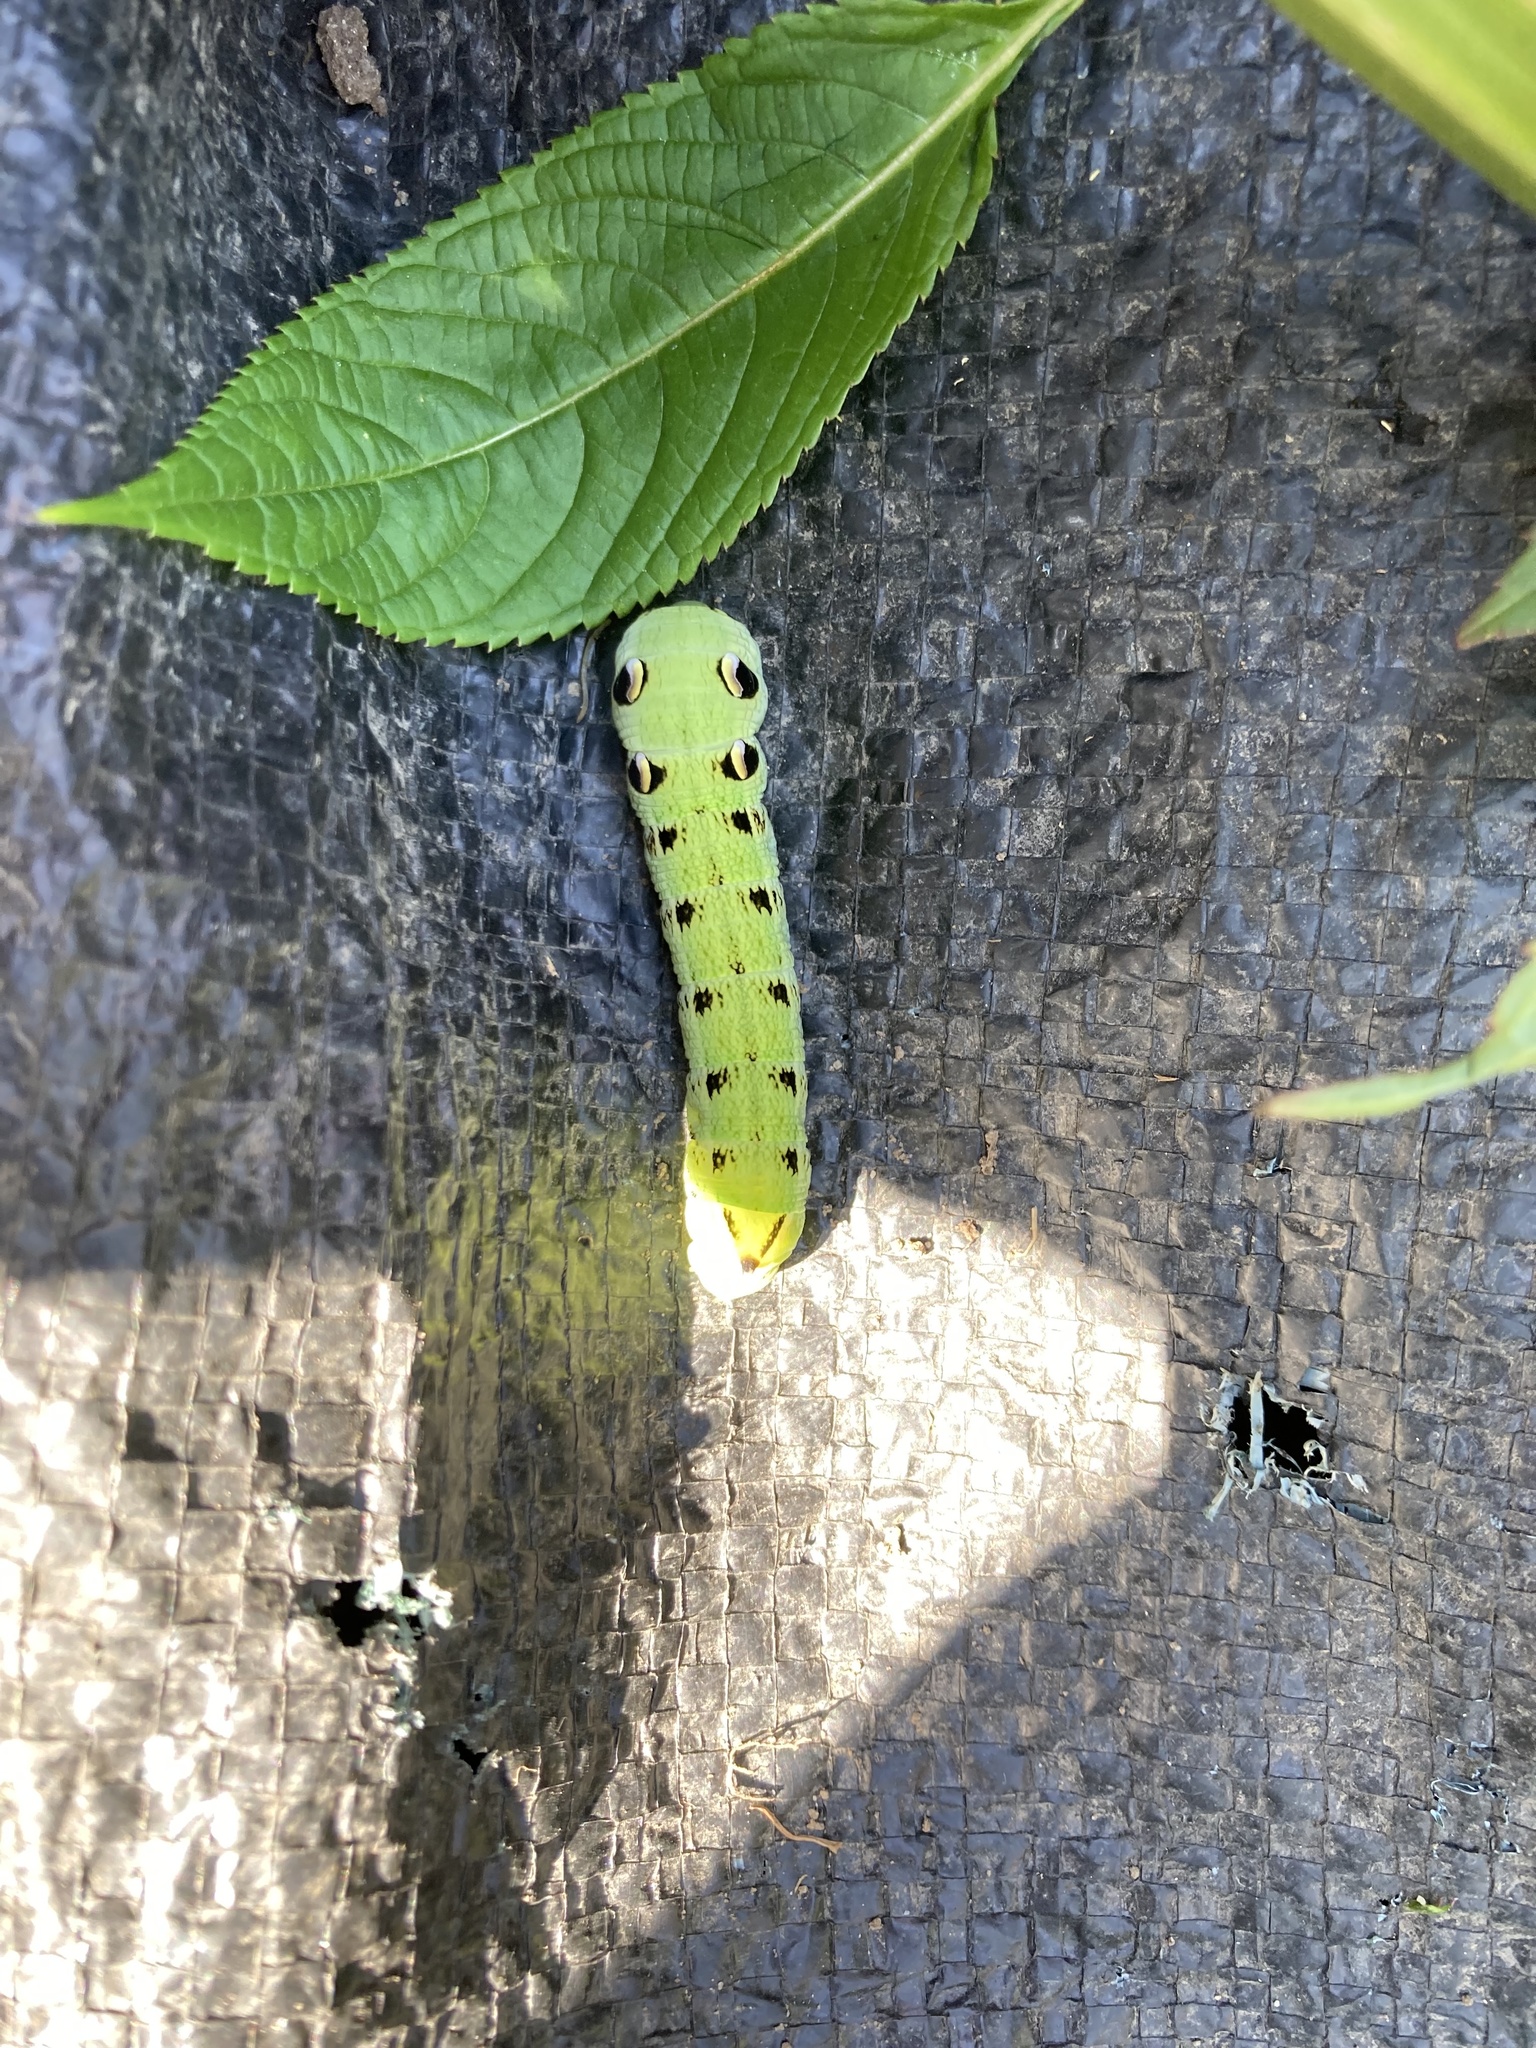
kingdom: Animalia
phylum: Arthropoda
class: Insecta
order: Lepidoptera
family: Sphingidae
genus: Deilephila
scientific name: Deilephila elpenor
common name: Elephant hawk-moth
